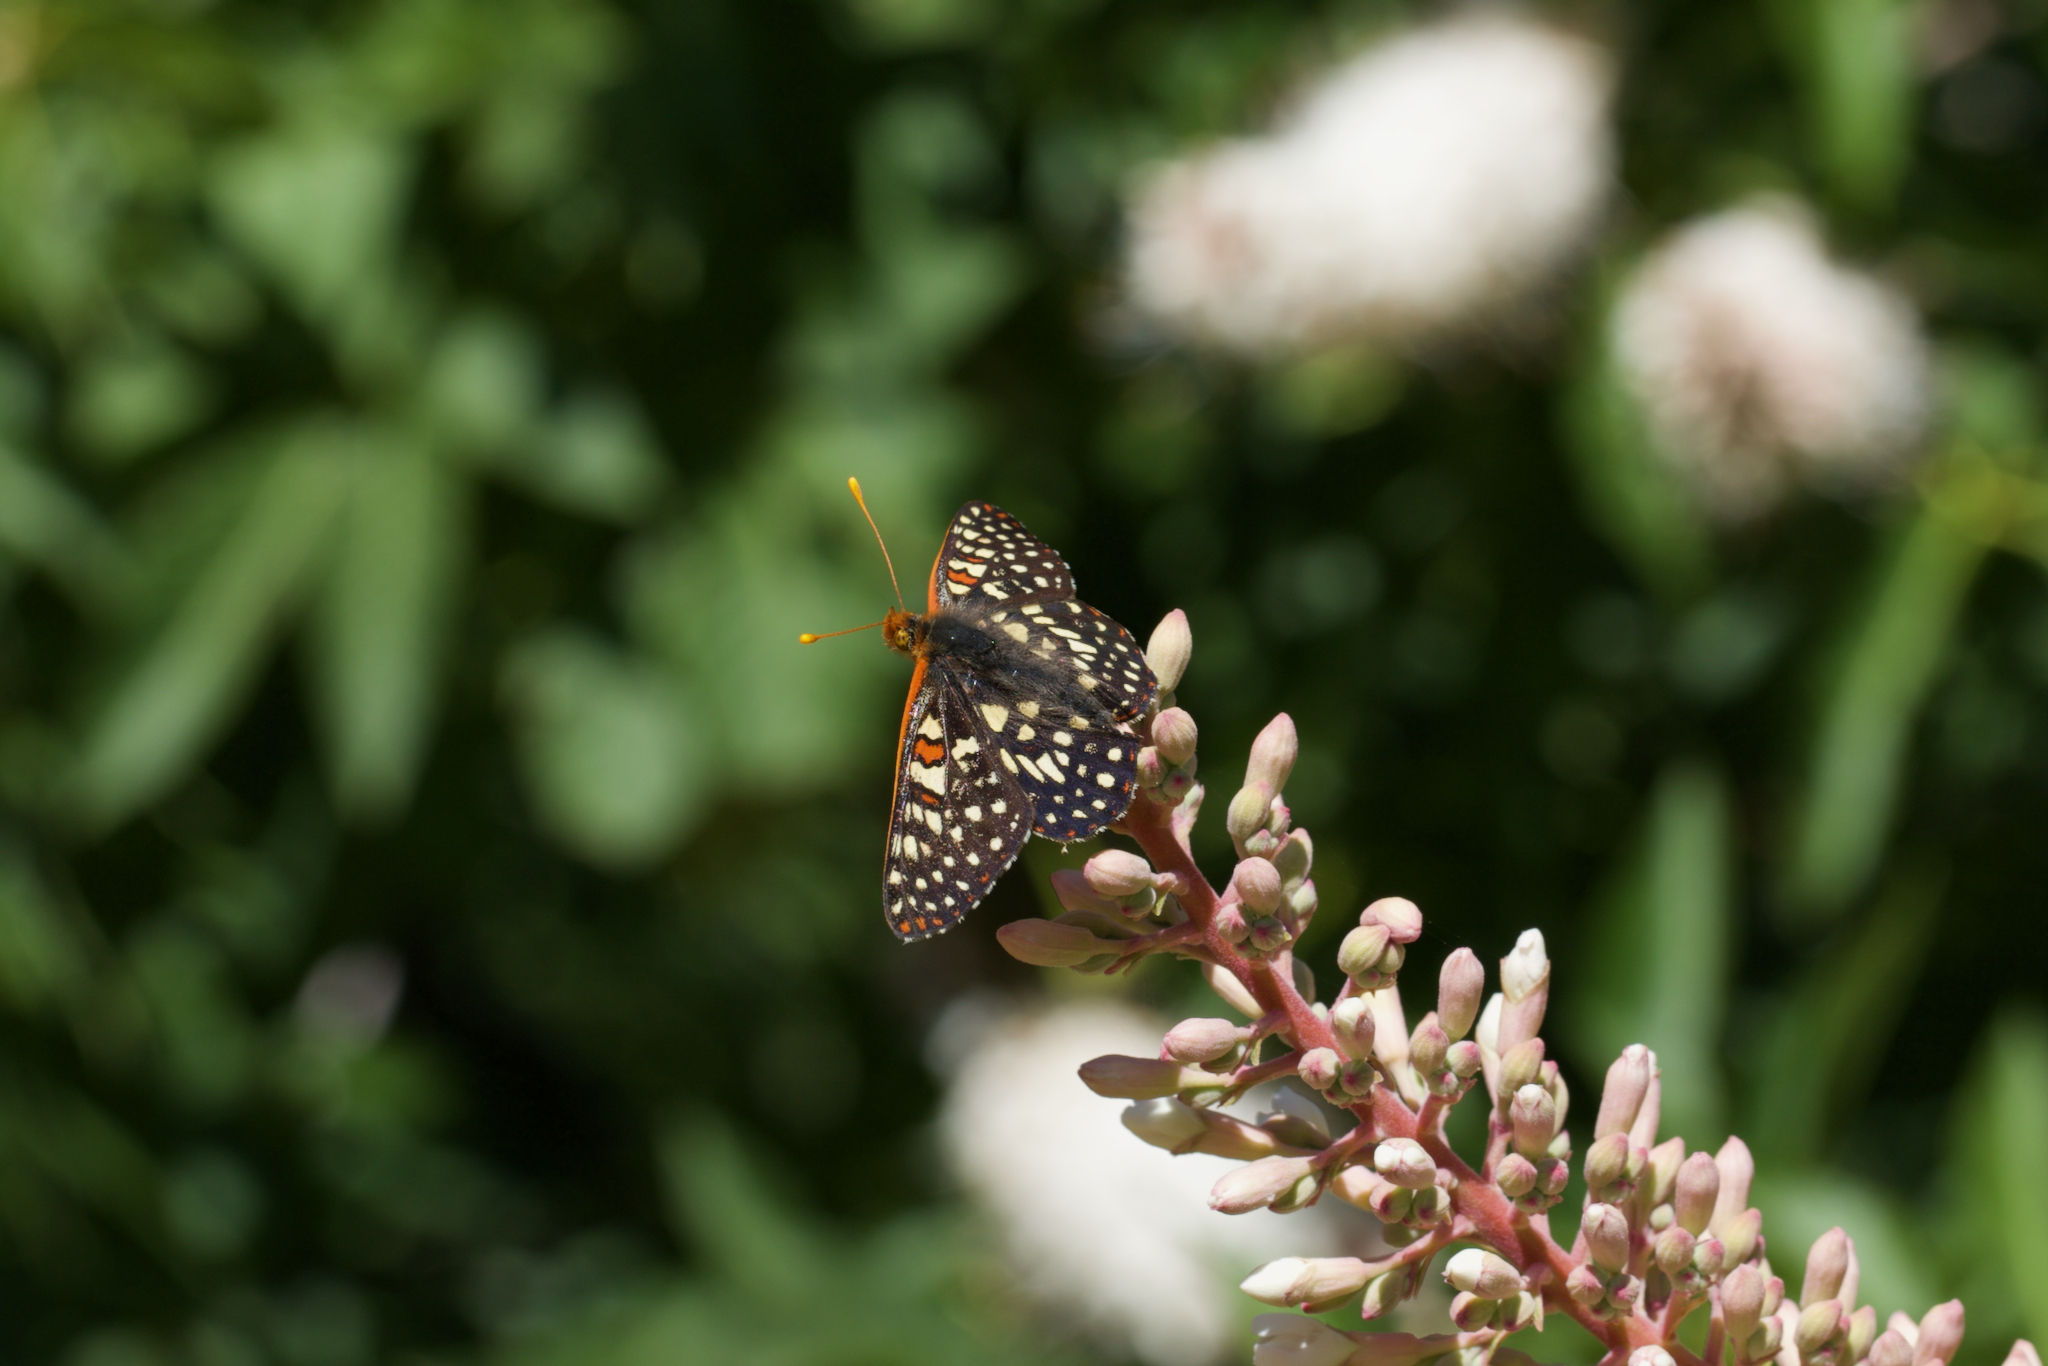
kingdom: Animalia
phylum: Arthropoda
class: Insecta
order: Lepidoptera
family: Nymphalidae
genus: Occidryas
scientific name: Occidryas chalcedona
